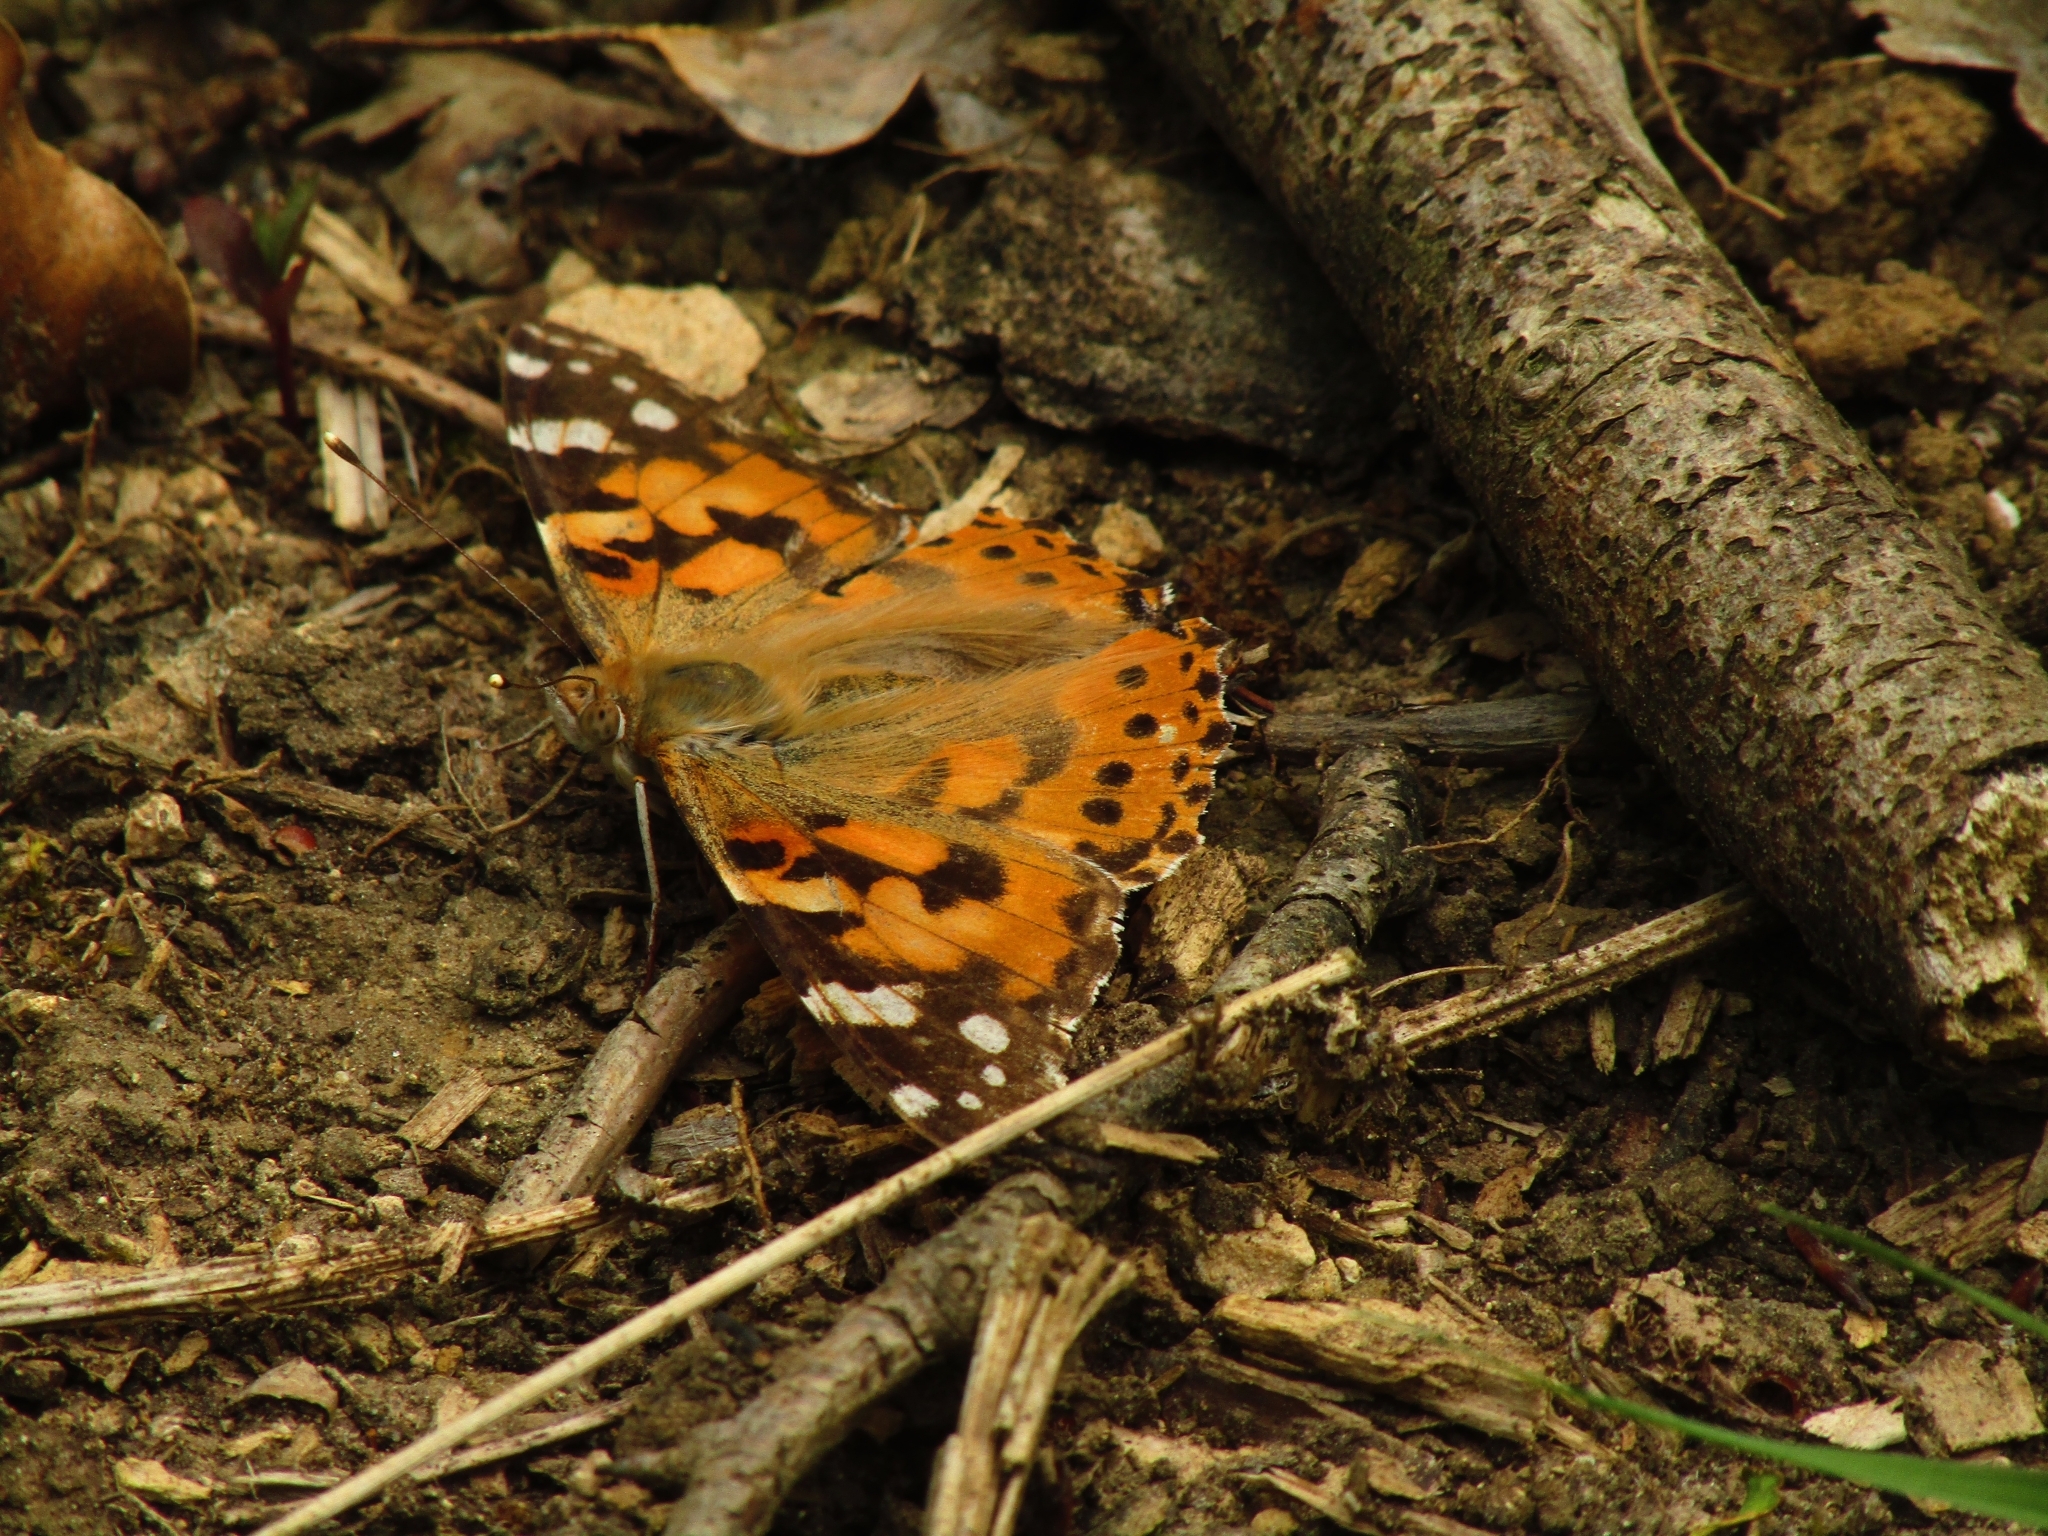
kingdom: Animalia
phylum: Arthropoda
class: Insecta
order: Lepidoptera
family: Nymphalidae
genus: Vanessa
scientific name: Vanessa cardui
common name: Painted lady
